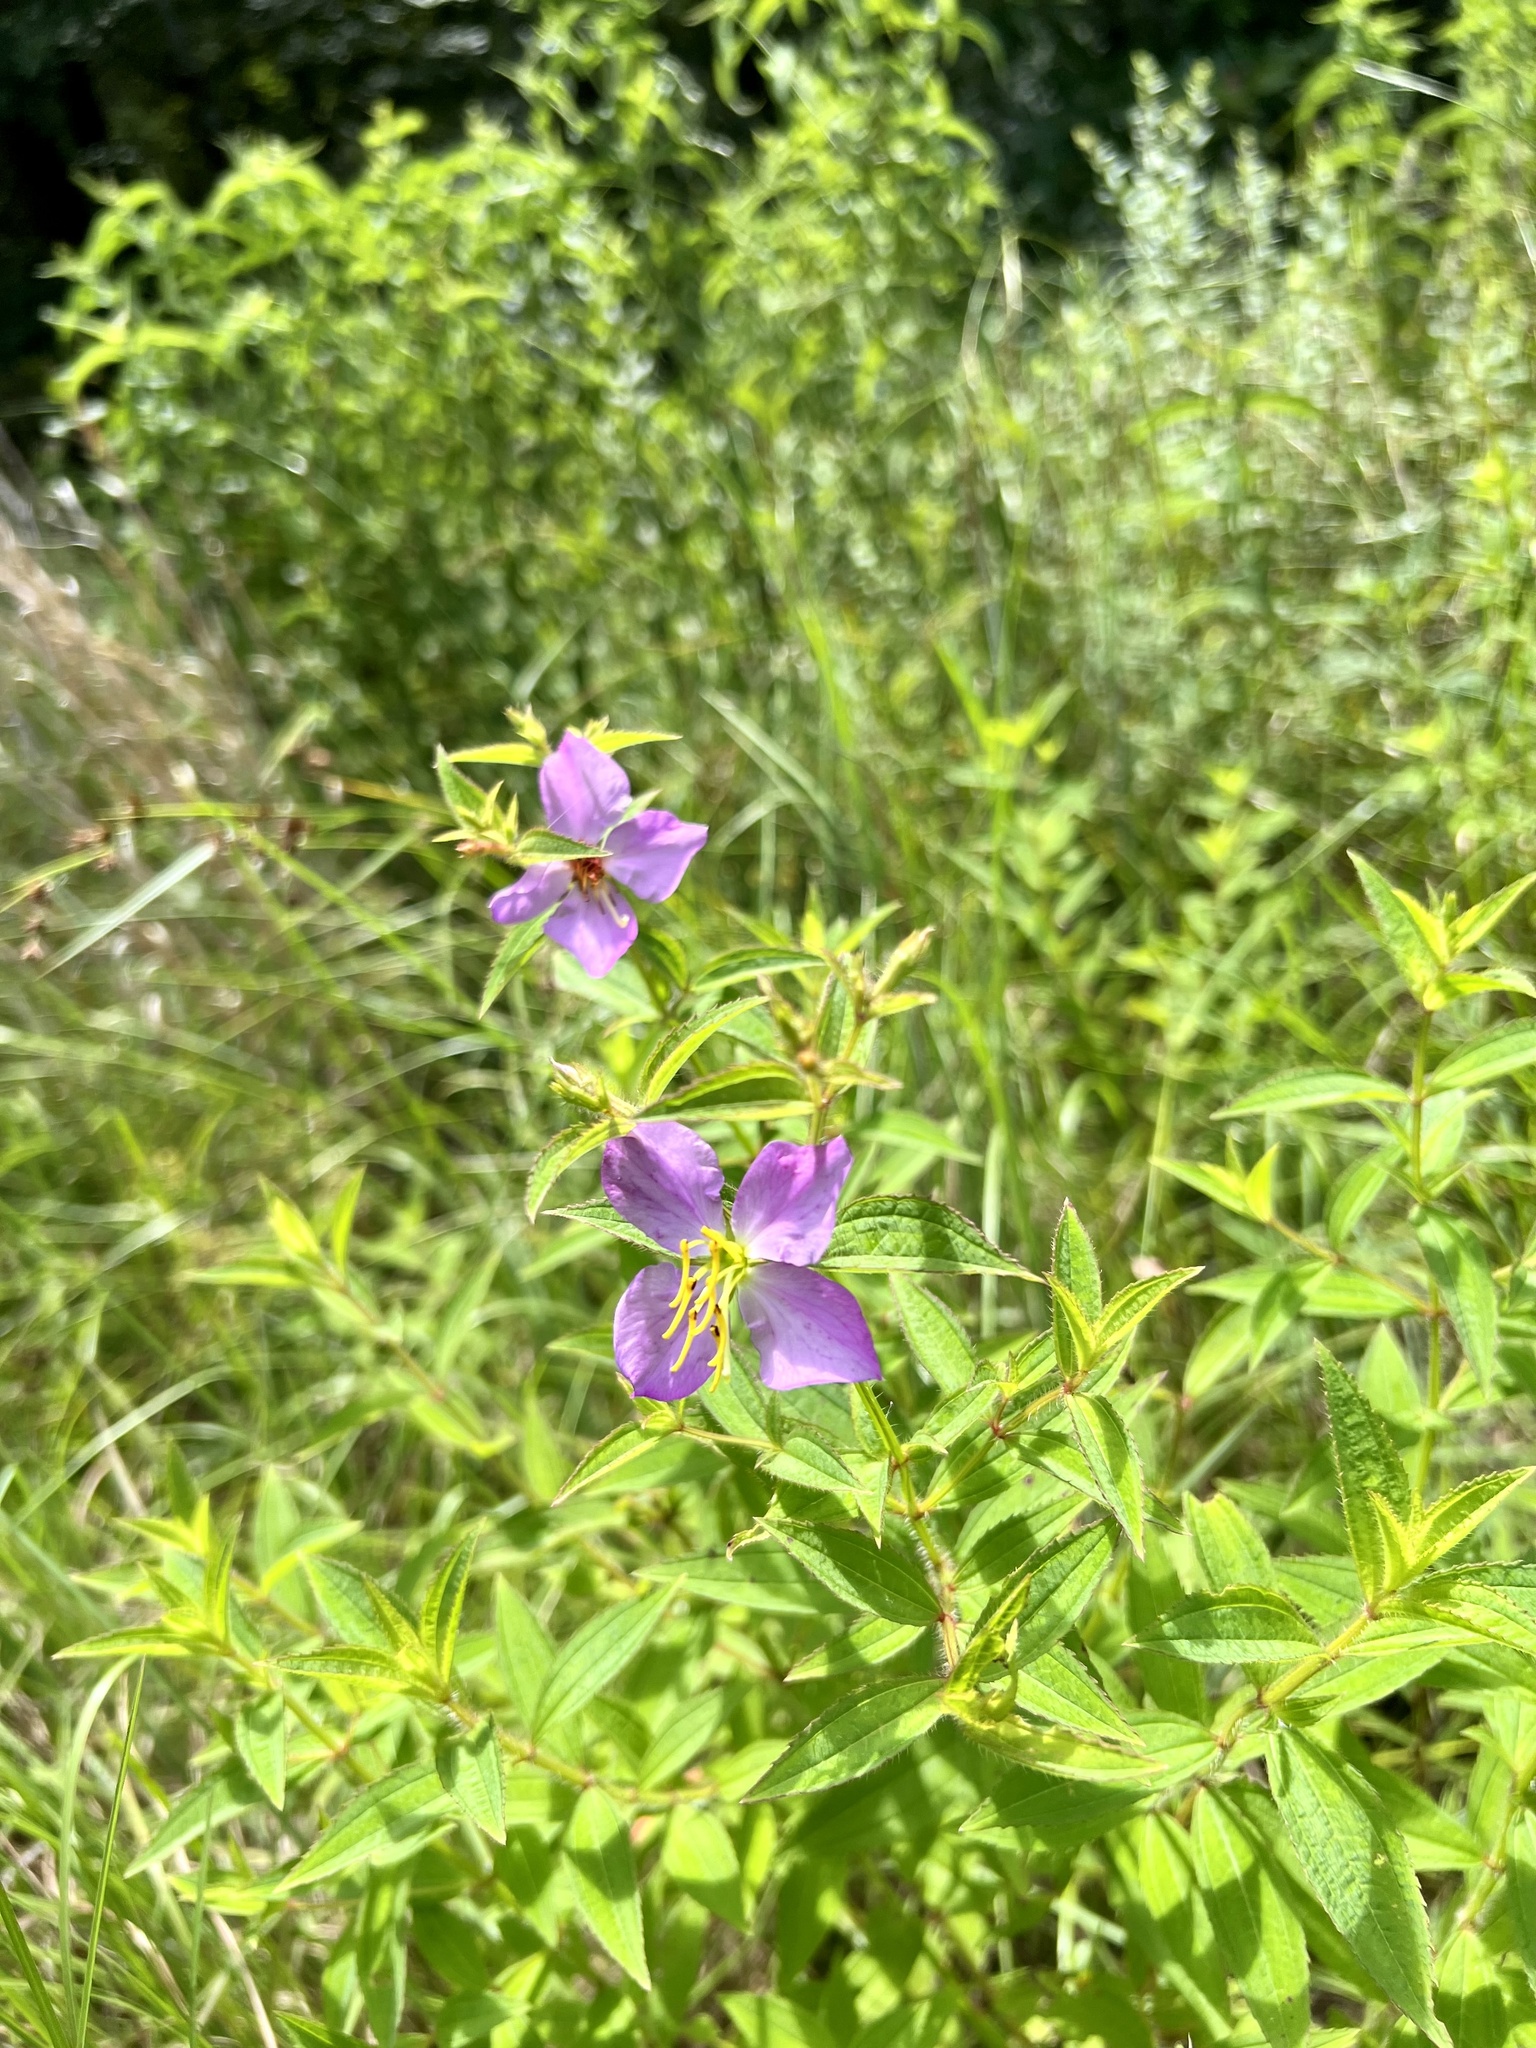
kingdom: Plantae
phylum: Tracheophyta
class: Magnoliopsida
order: Myrtales
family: Melastomataceae
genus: Rhexia
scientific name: Rhexia mariana
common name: Dull meadow-pitcher
